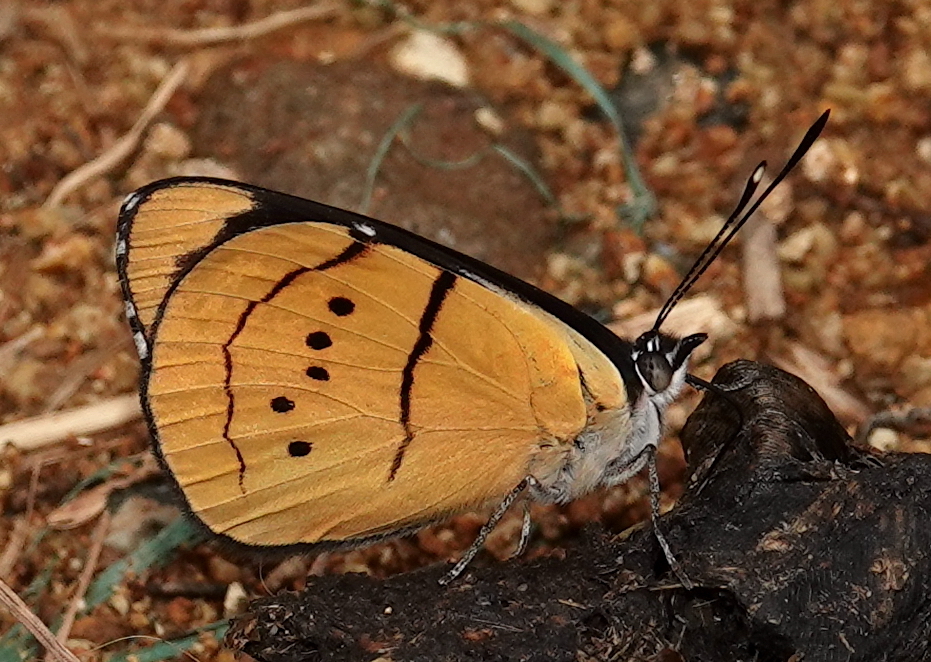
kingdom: Animalia
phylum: Arthropoda
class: Insecta
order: Lepidoptera
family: Nymphalidae
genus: Perisama
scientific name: Perisama humboldtii
